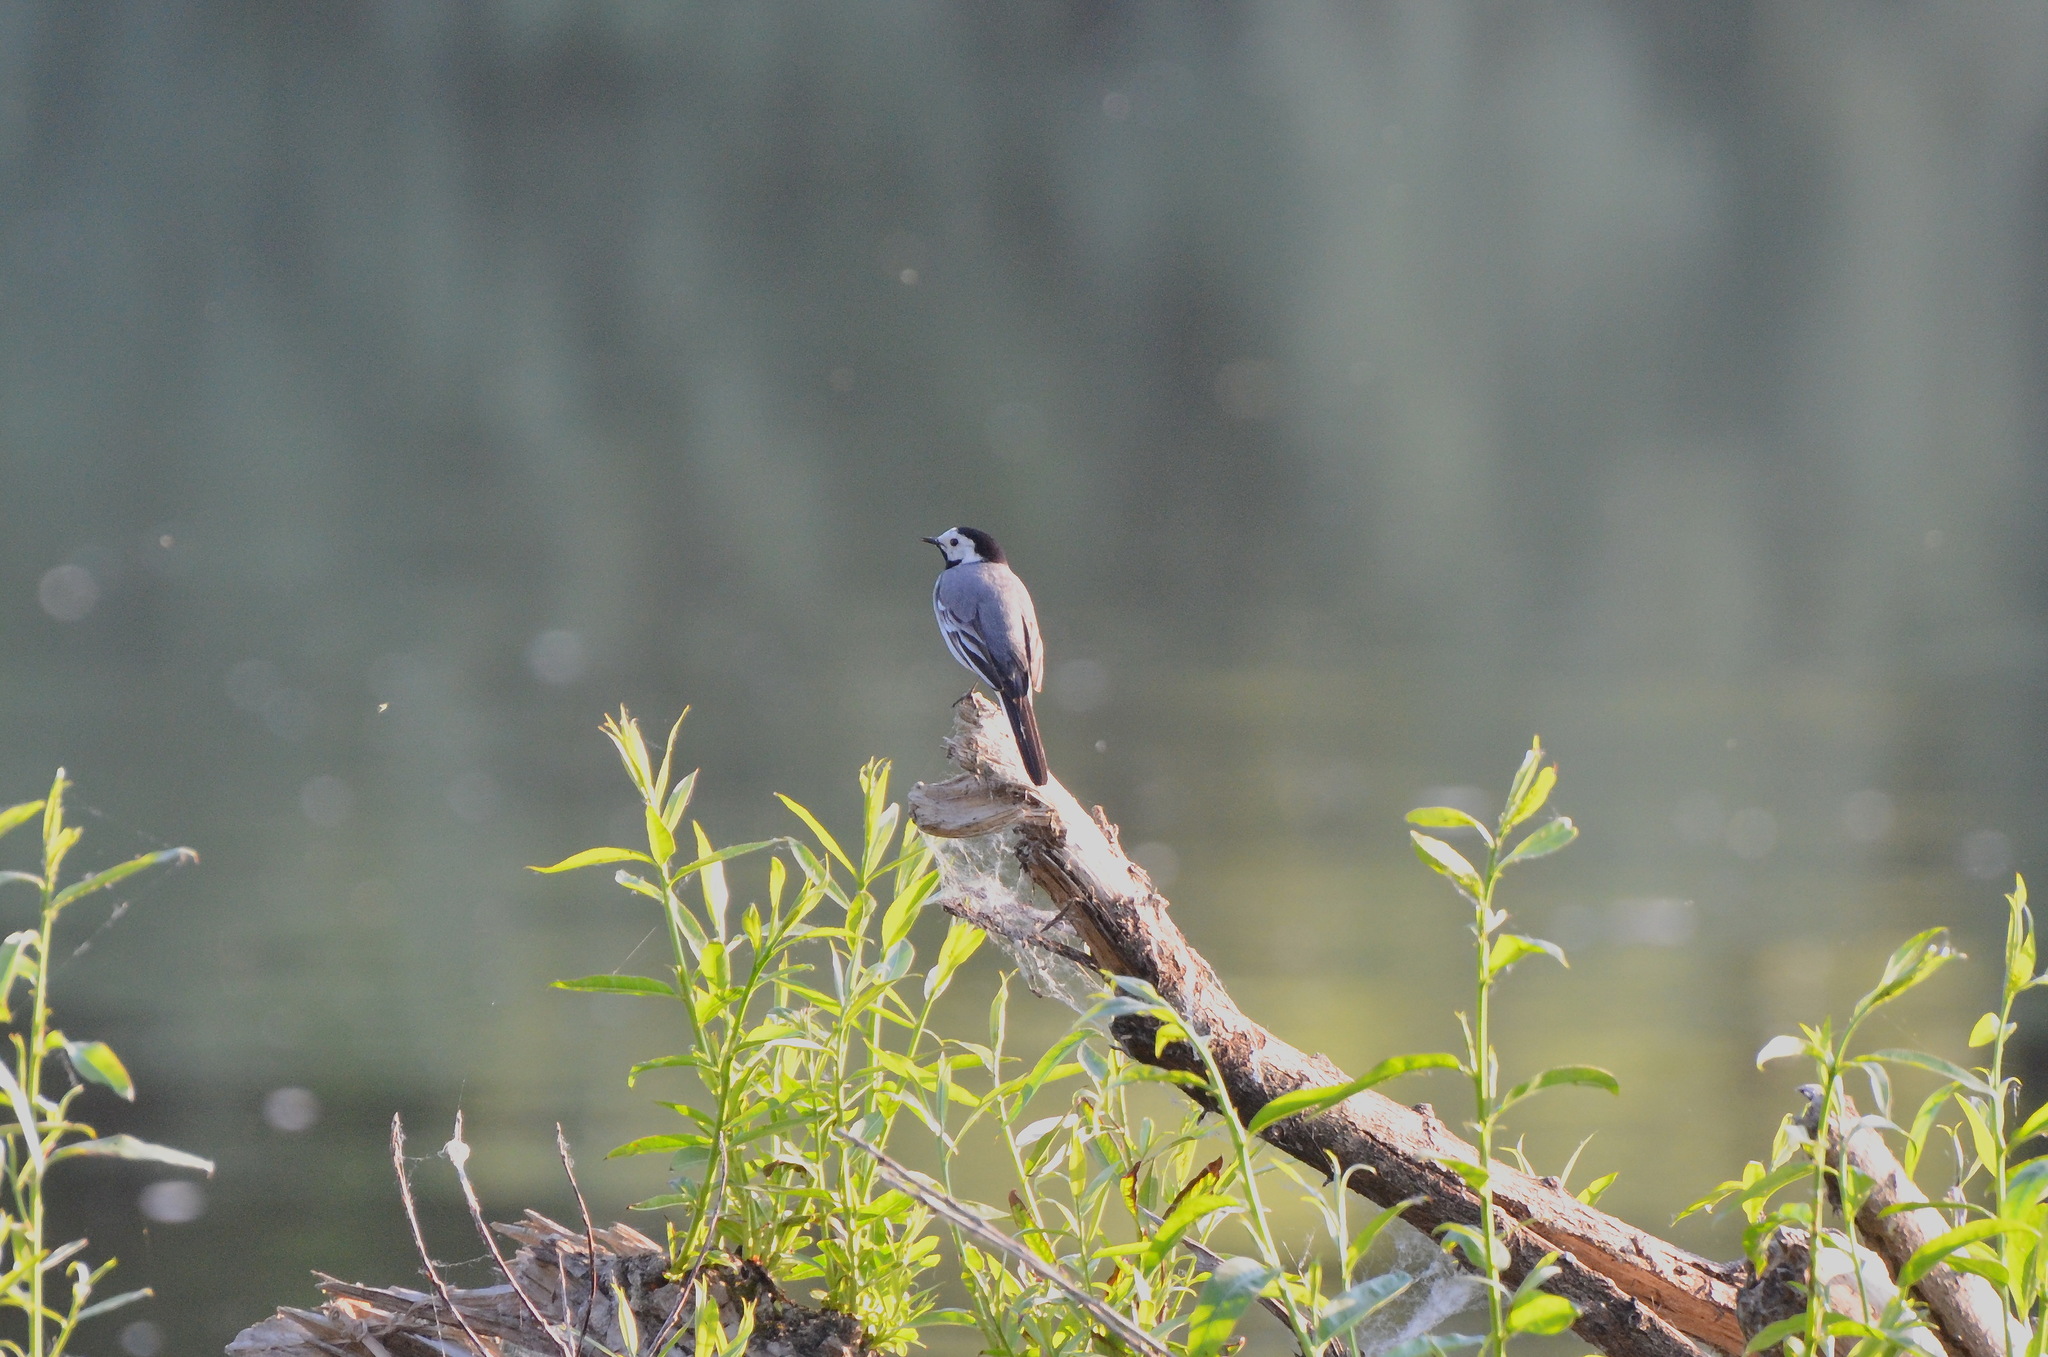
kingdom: Animalia
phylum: Chordata
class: Aves
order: Passeriformes
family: Motacillidae
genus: Motacilla
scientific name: Motacilla alba
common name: White wagtail
